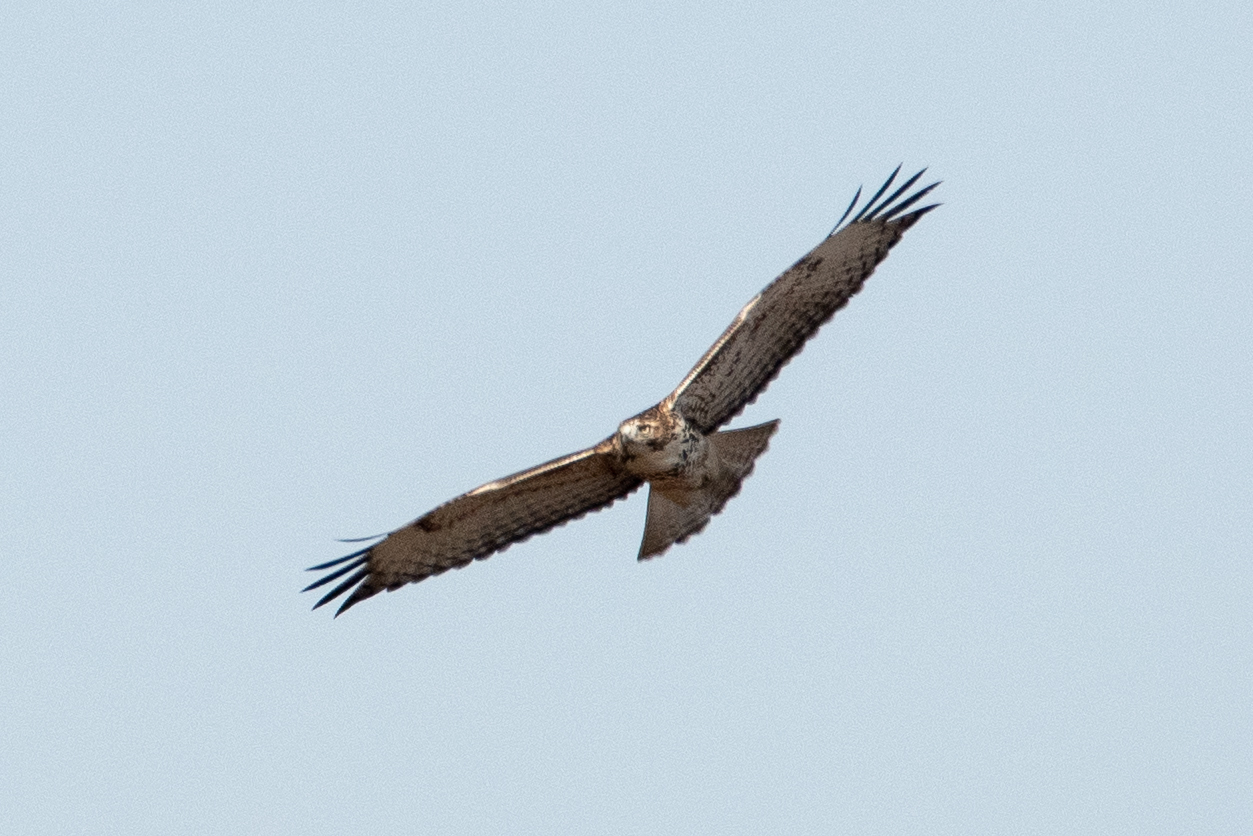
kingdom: Animalia
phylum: Chordata
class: Aves
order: Accipitriformes
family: Accipitridae
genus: Buteo
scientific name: Buteo jamaicensis
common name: Red-tailed hawk
